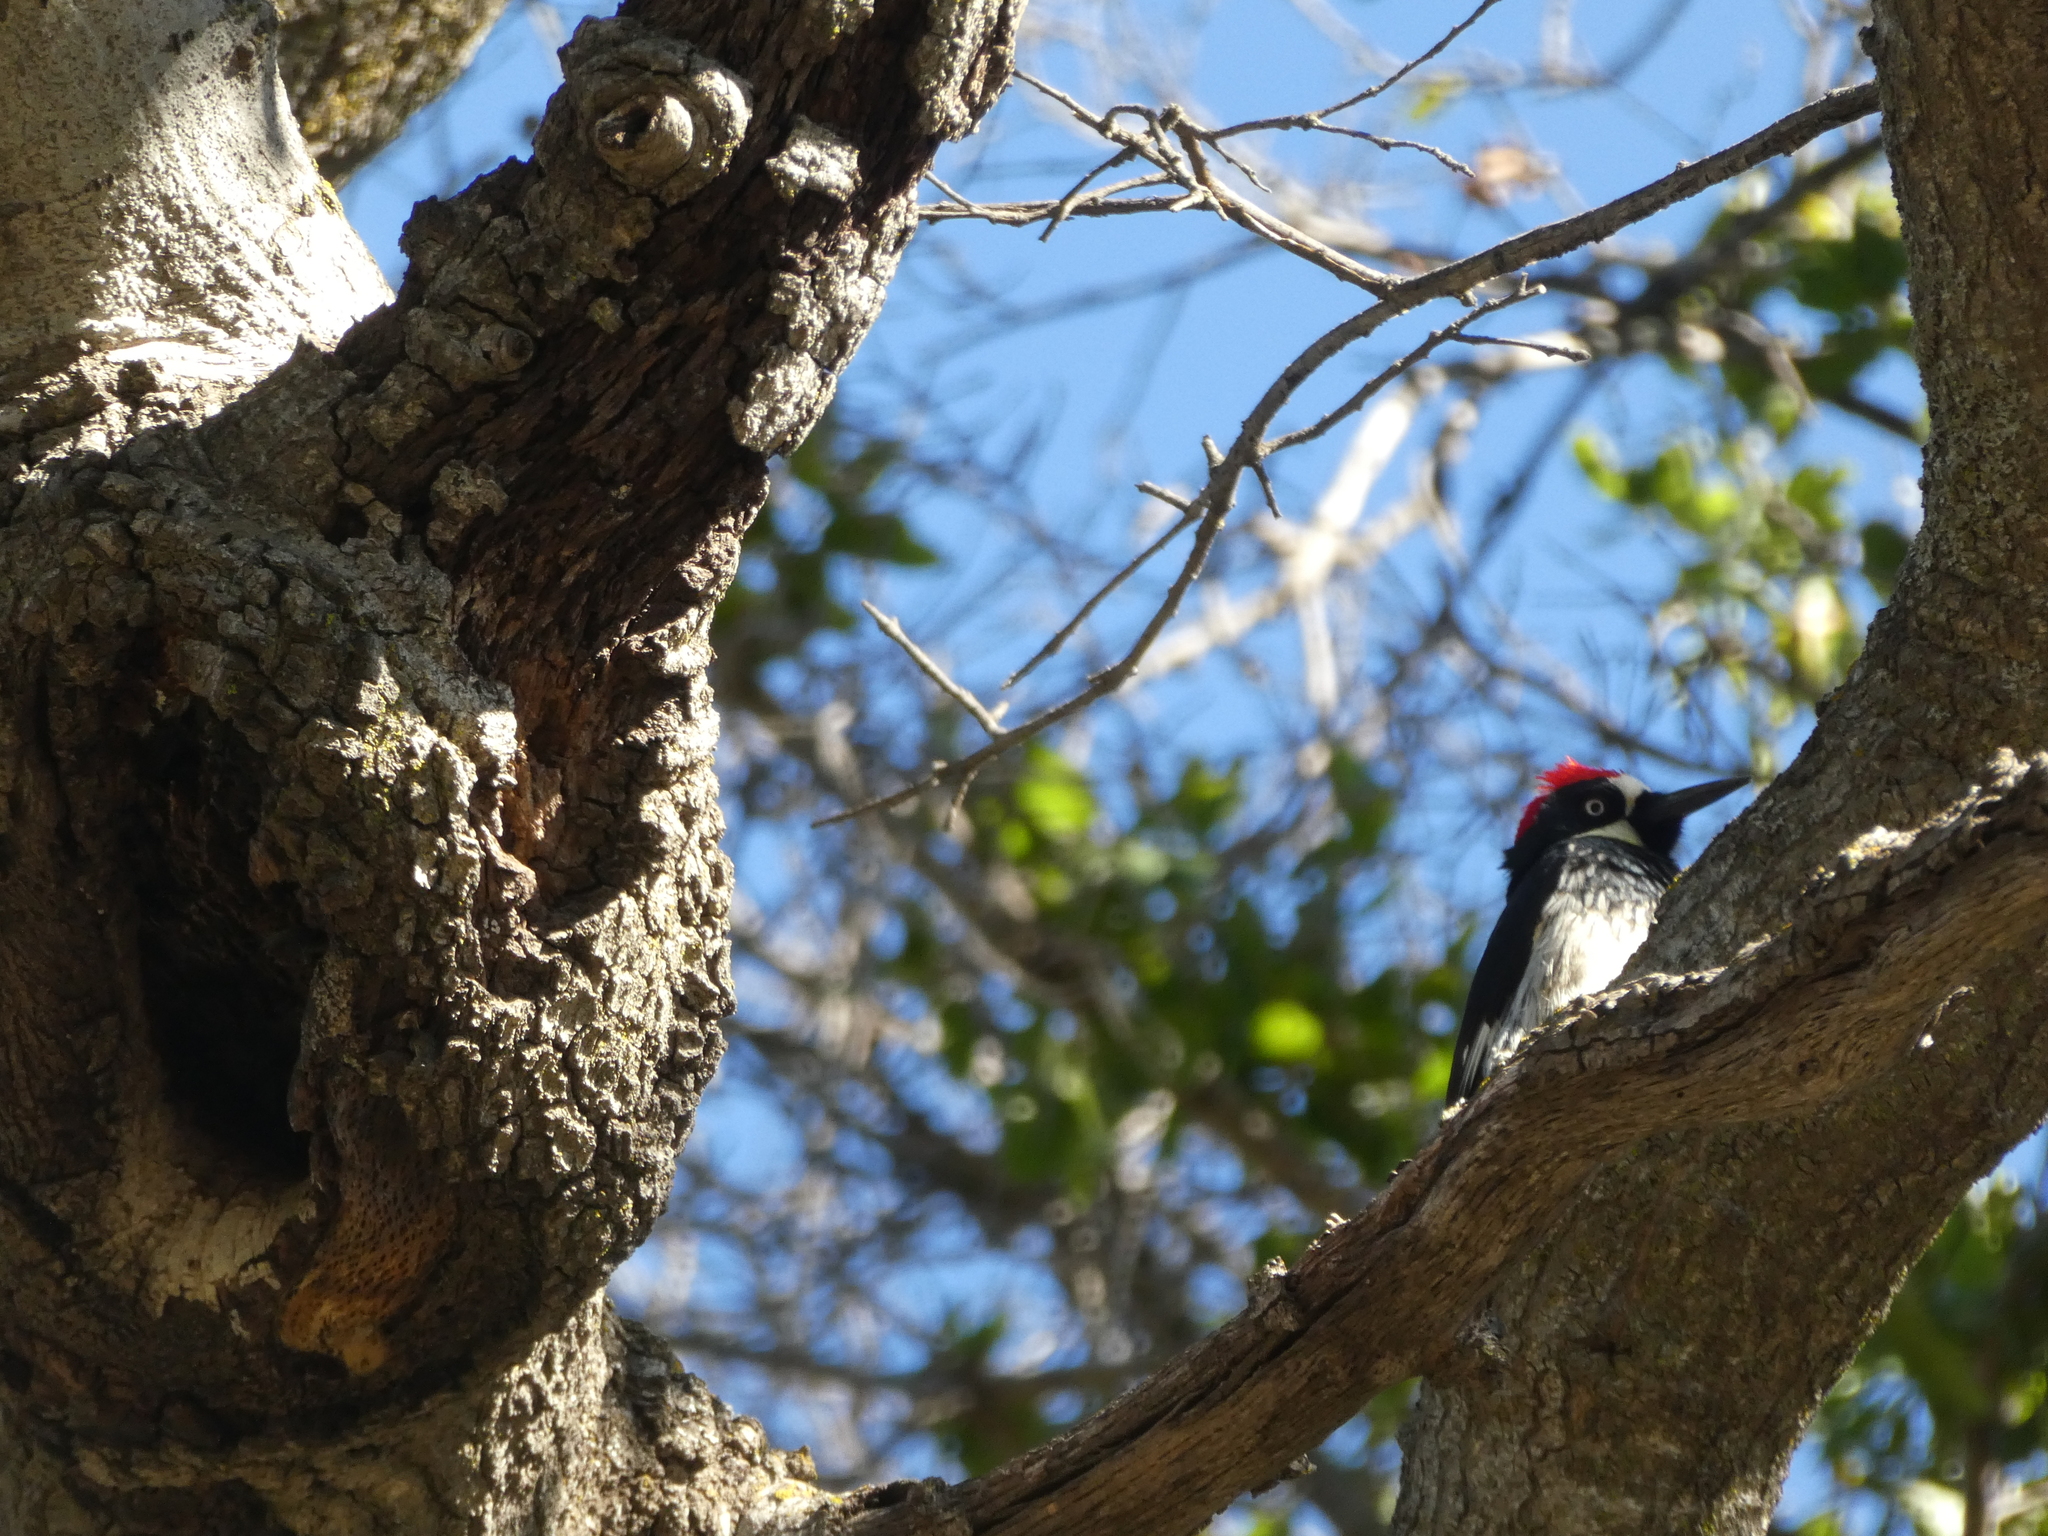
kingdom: Animalia
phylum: Chordata
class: Aves
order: Piciformes
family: Picidae
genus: Melanerpes
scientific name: Melanerpes formicivorus
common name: Acorn woodpecker
